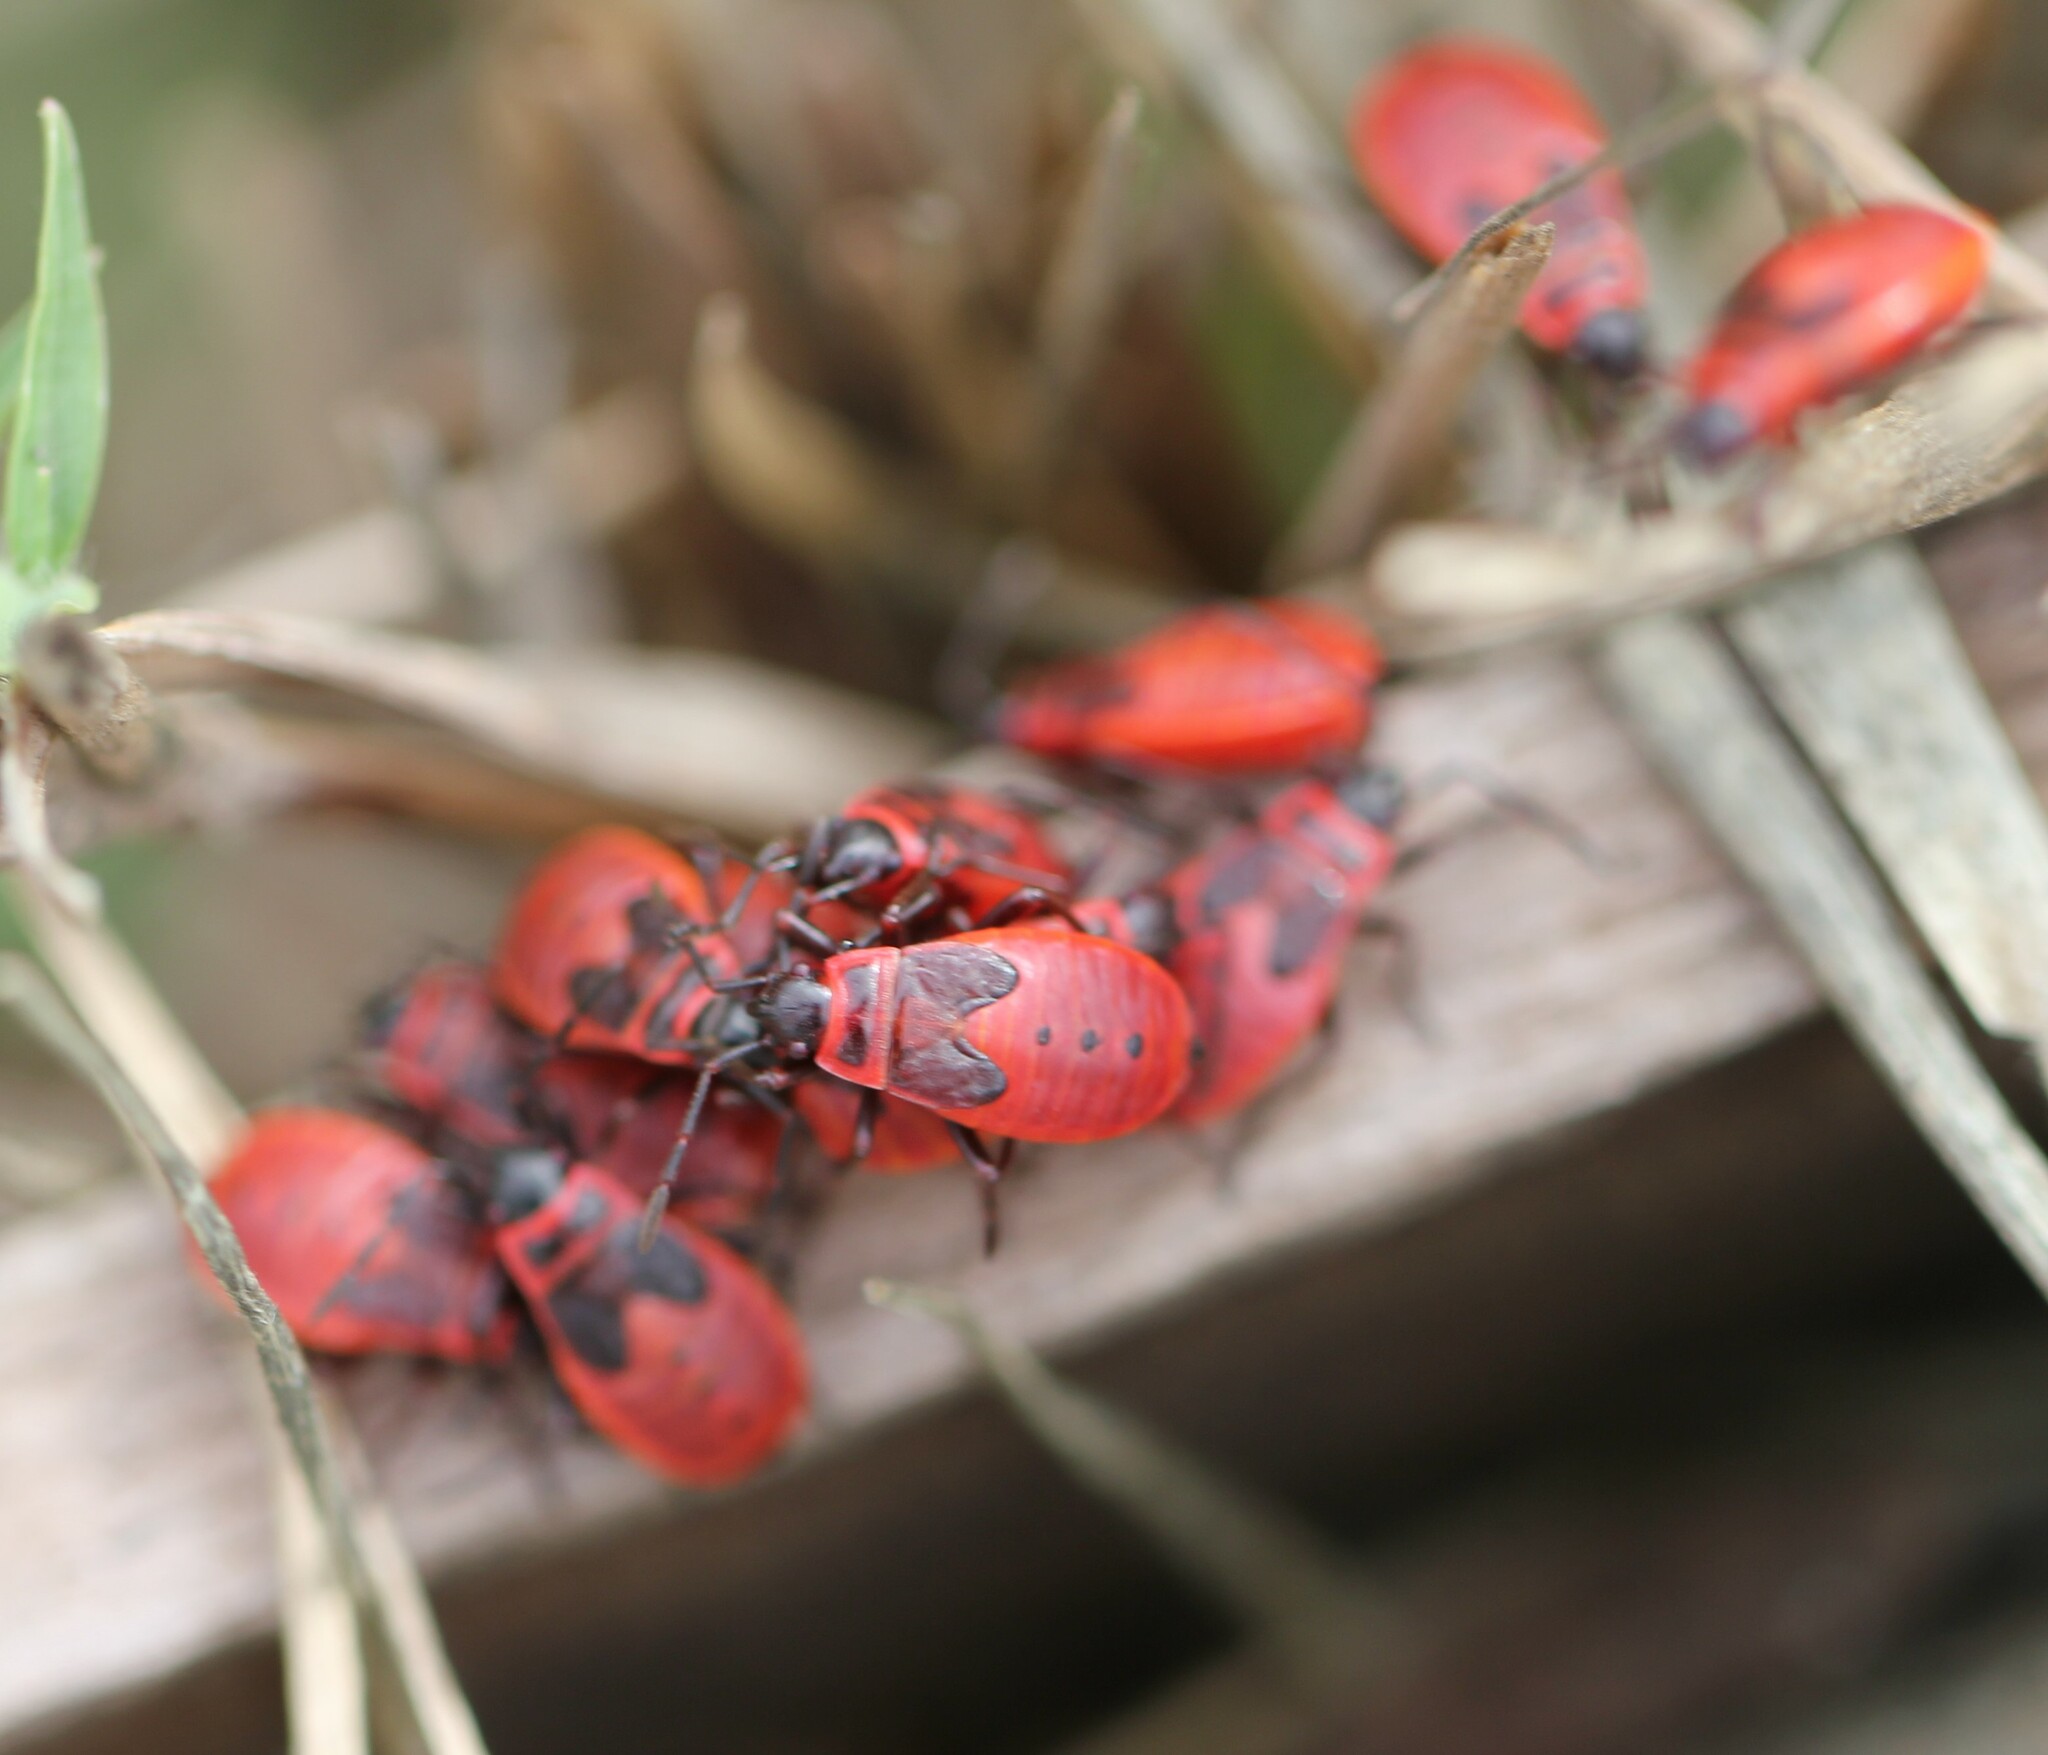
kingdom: Animalia
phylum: Arthropoda
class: Insecta
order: Hemiptera
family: Pyrrhocoridae
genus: Pyrrhocoris
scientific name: Pyrrhocoris apterus
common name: Firebug
